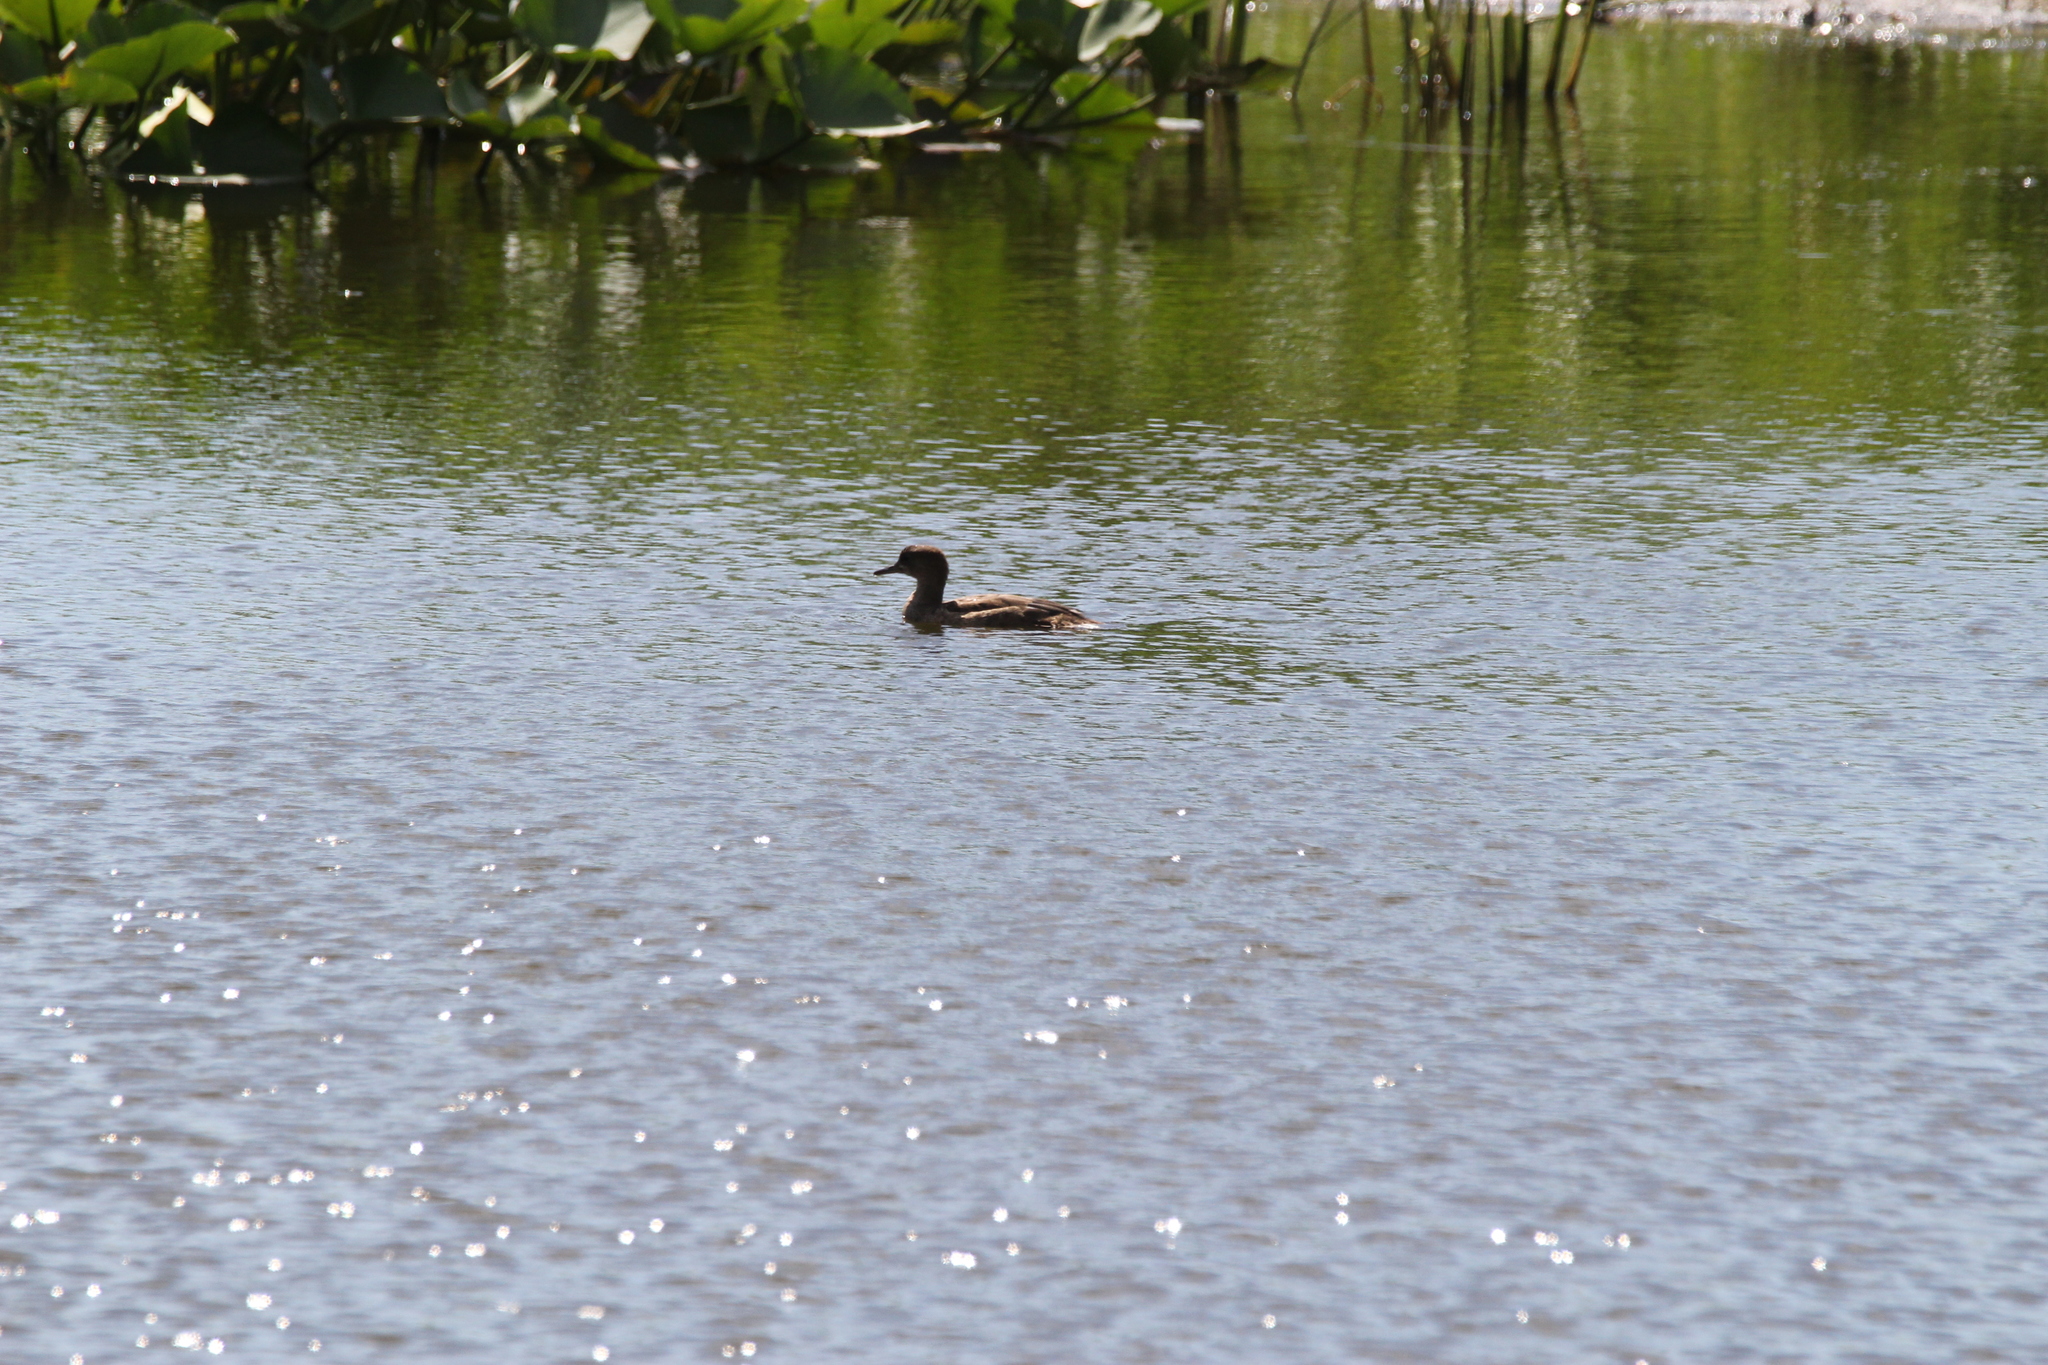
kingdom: Animalia
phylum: Chordata
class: Aves
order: Anseriformes
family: Anatidae
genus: Lophodytes
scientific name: Lophodytes cucullatus
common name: Hooded merganser
